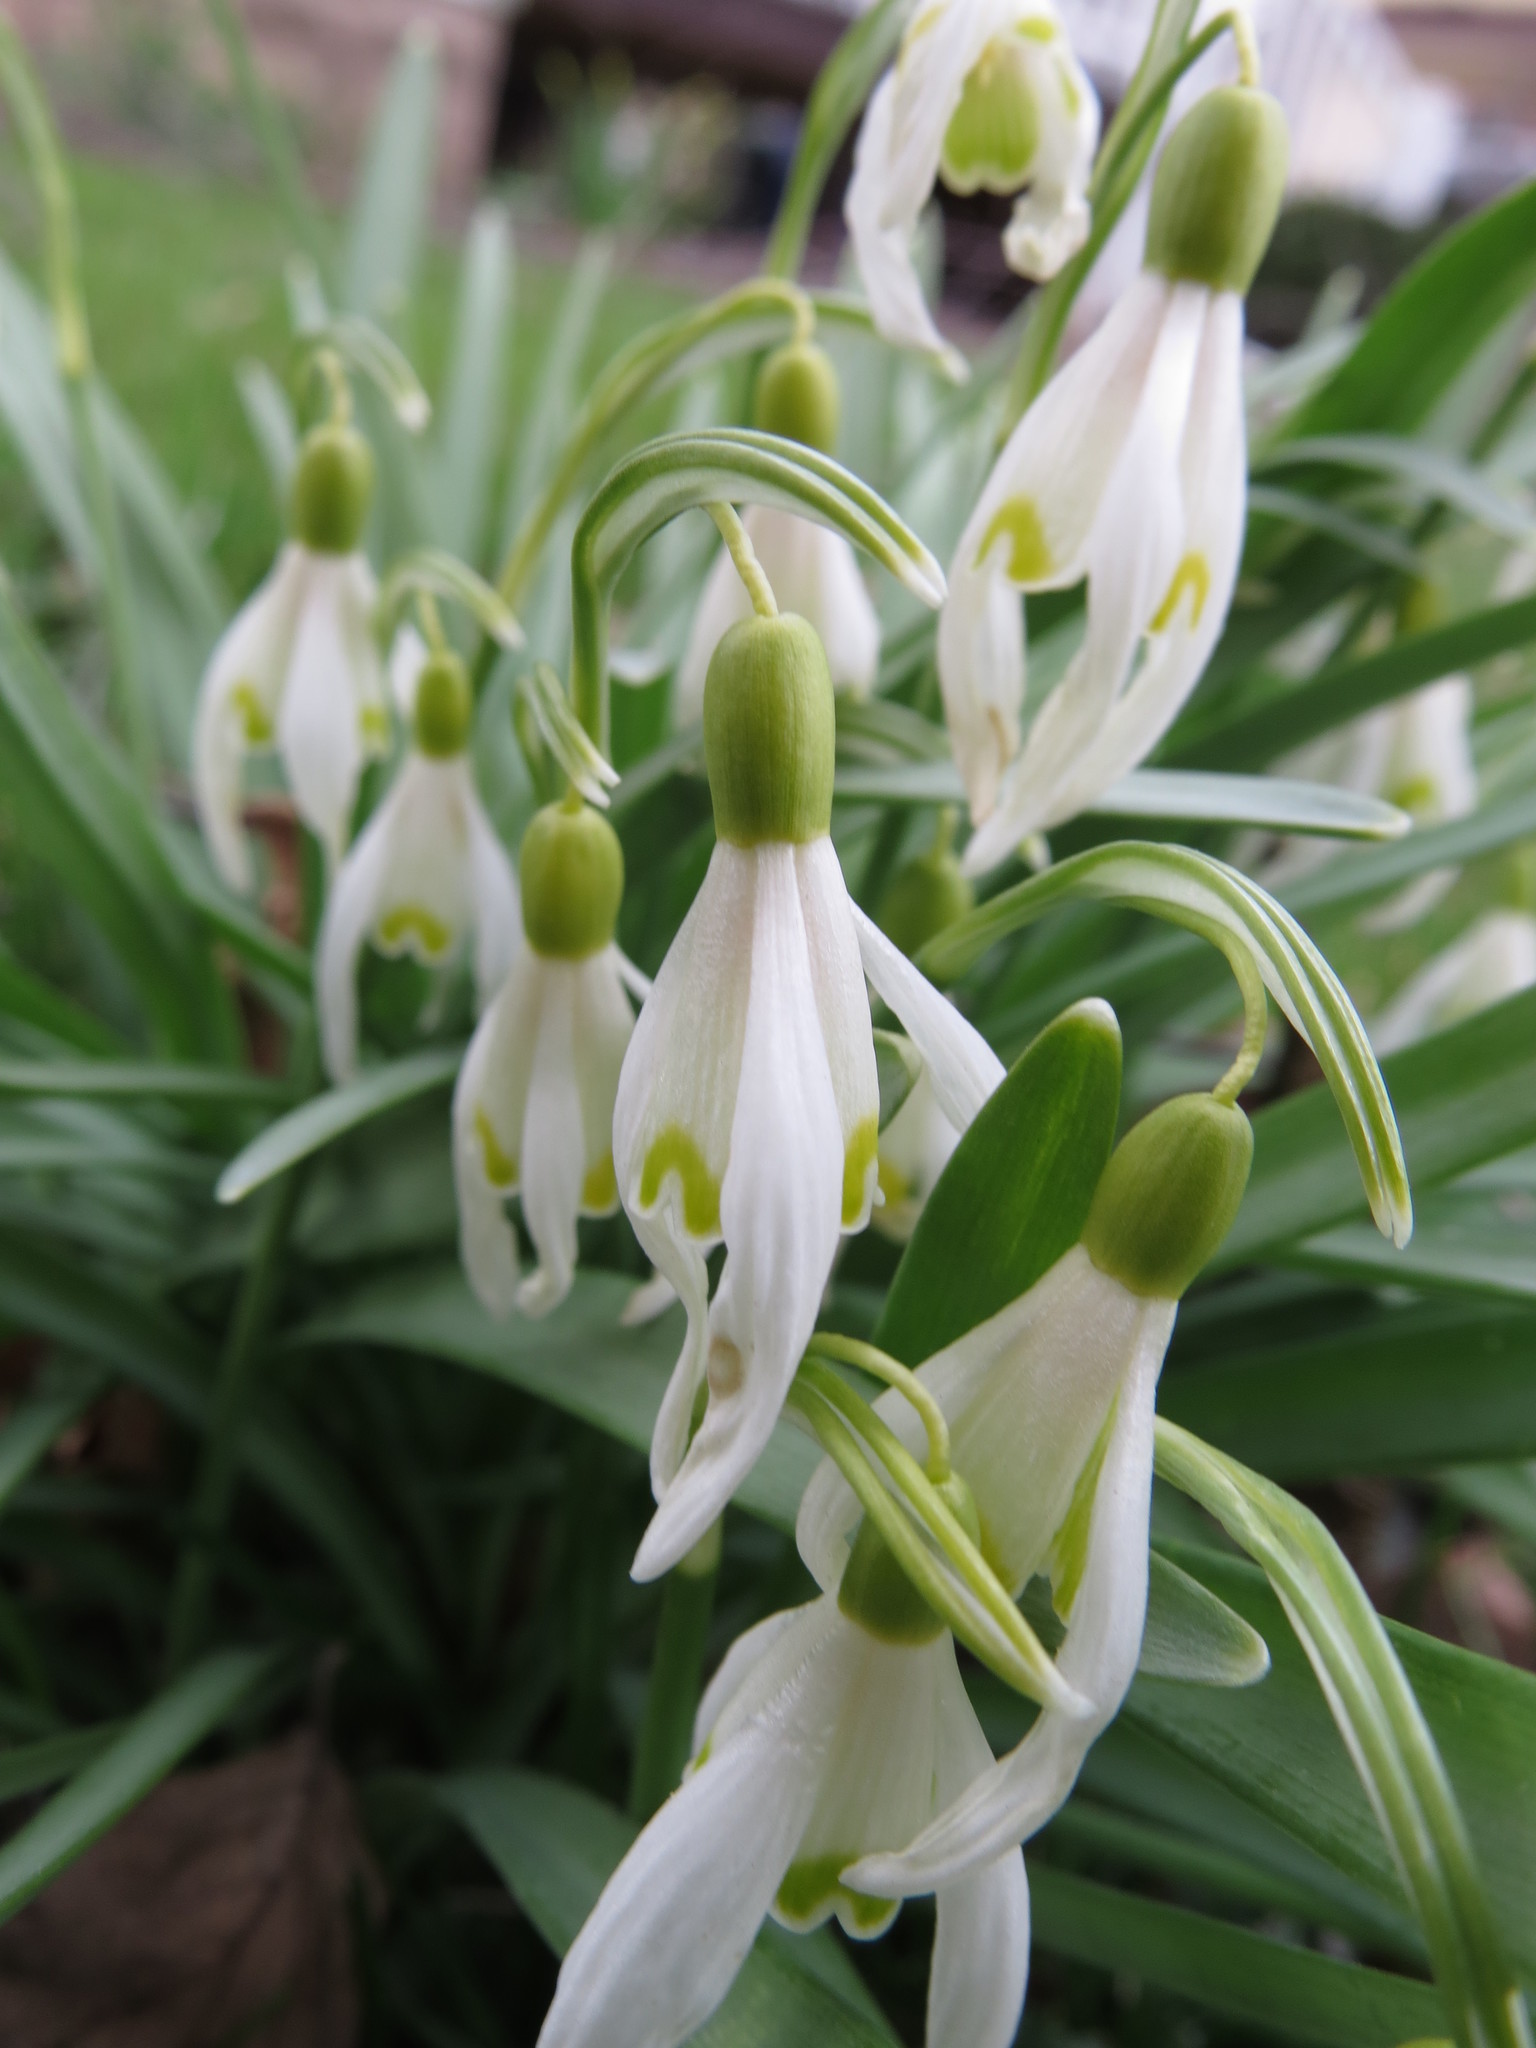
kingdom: Plantae
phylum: Tracheophyta
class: Liliopsida
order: Asparagales
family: Amaryllidaceae
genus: Galanthus
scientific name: Galanthus nivalis
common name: Snowdrop
